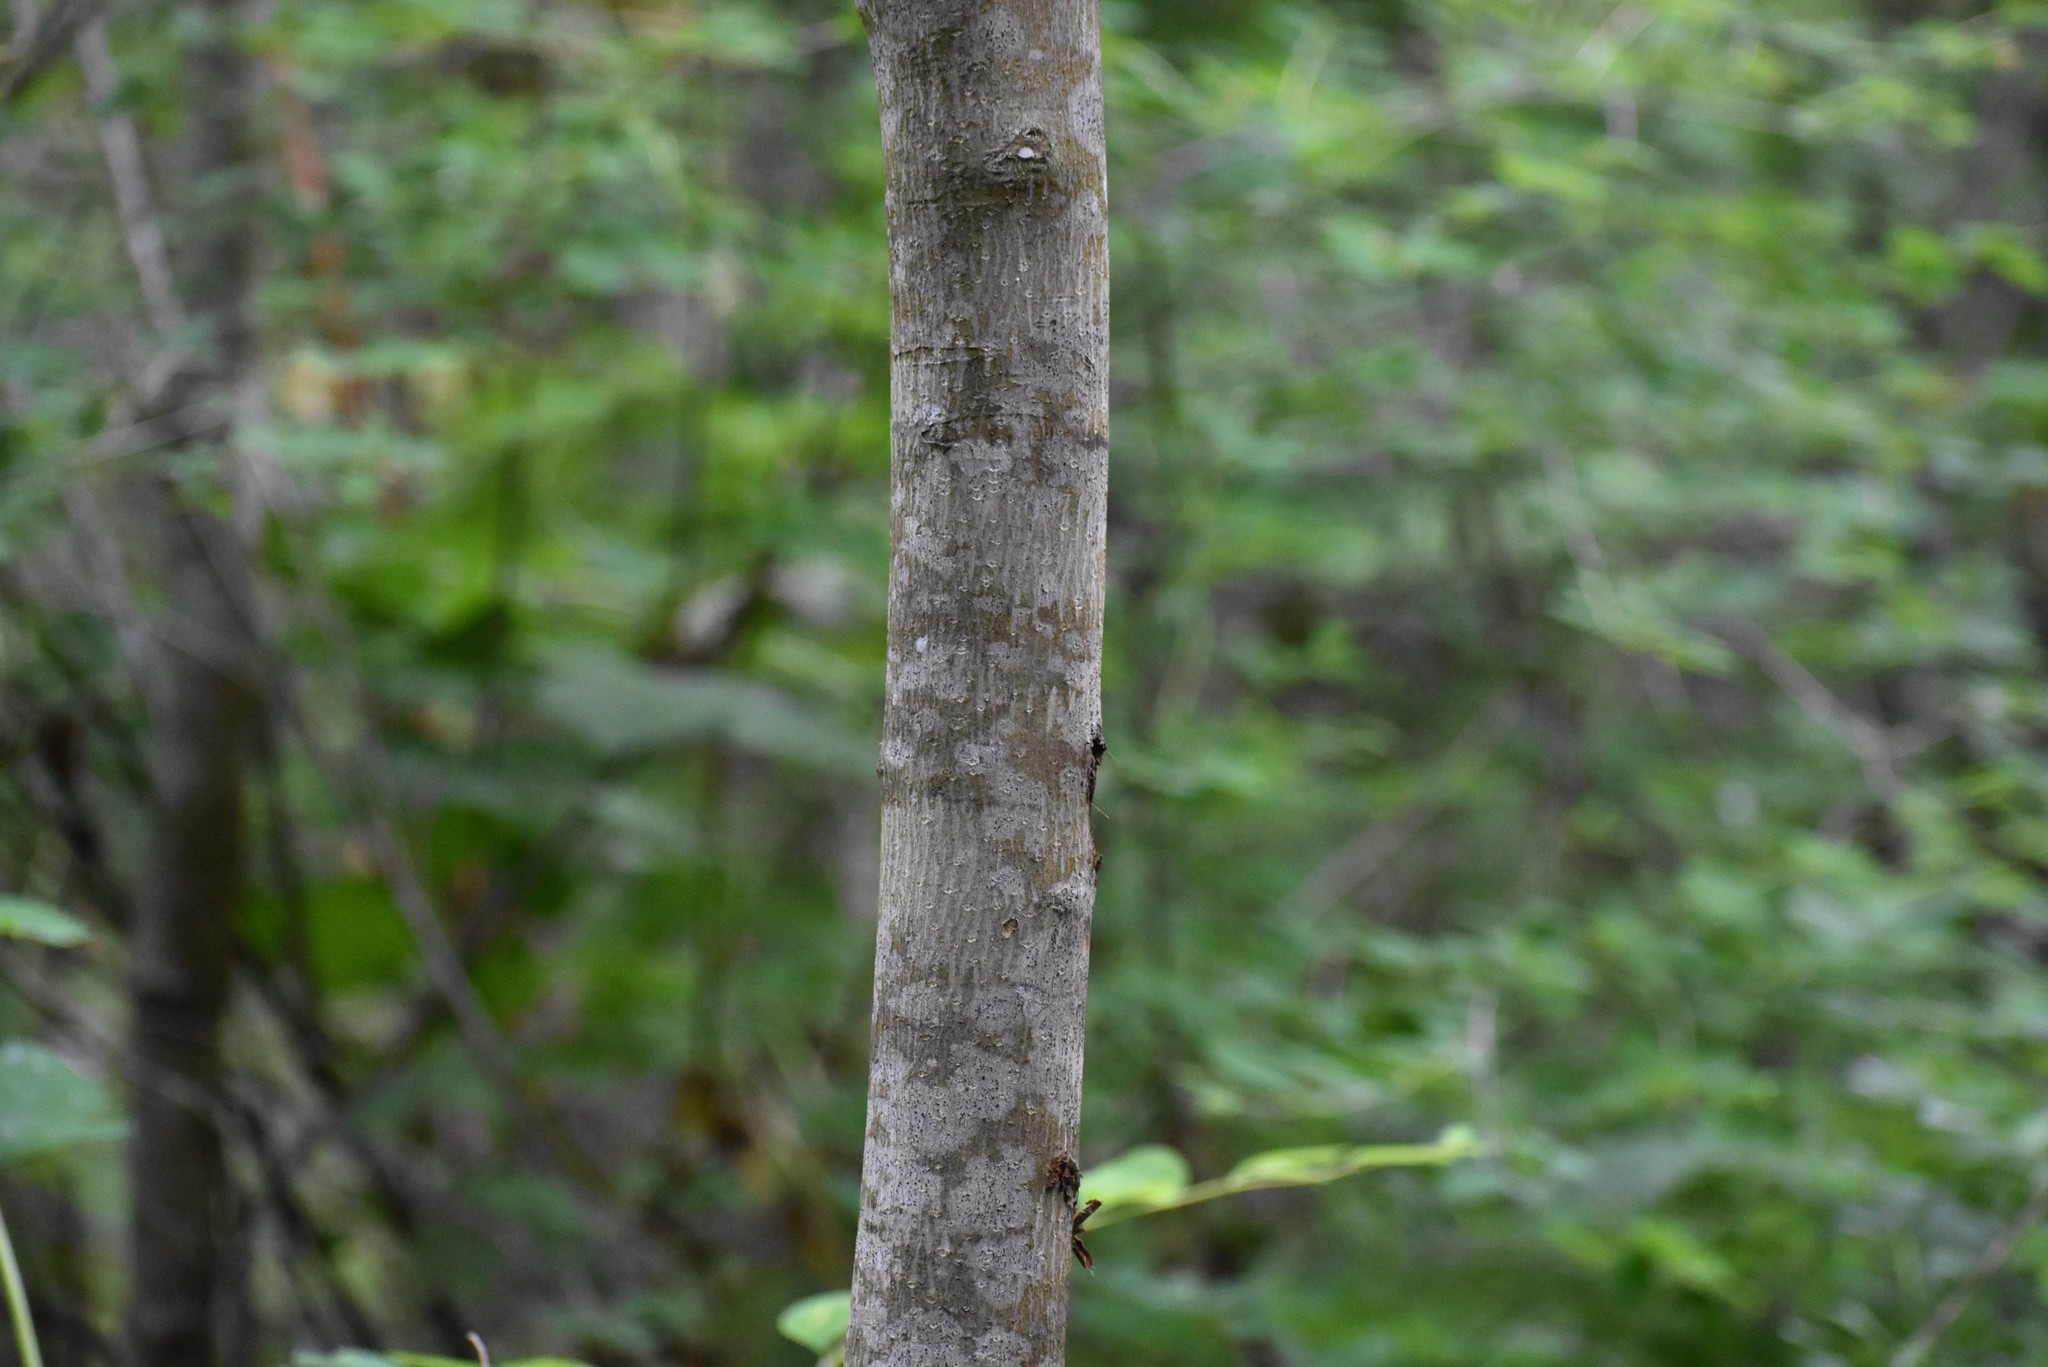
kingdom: Plantae
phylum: Tracheophyta
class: Magnoliopsida
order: Cornales
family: Cornaceae
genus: Cornus
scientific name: Cornus nuttallii
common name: Pacific dogwood
